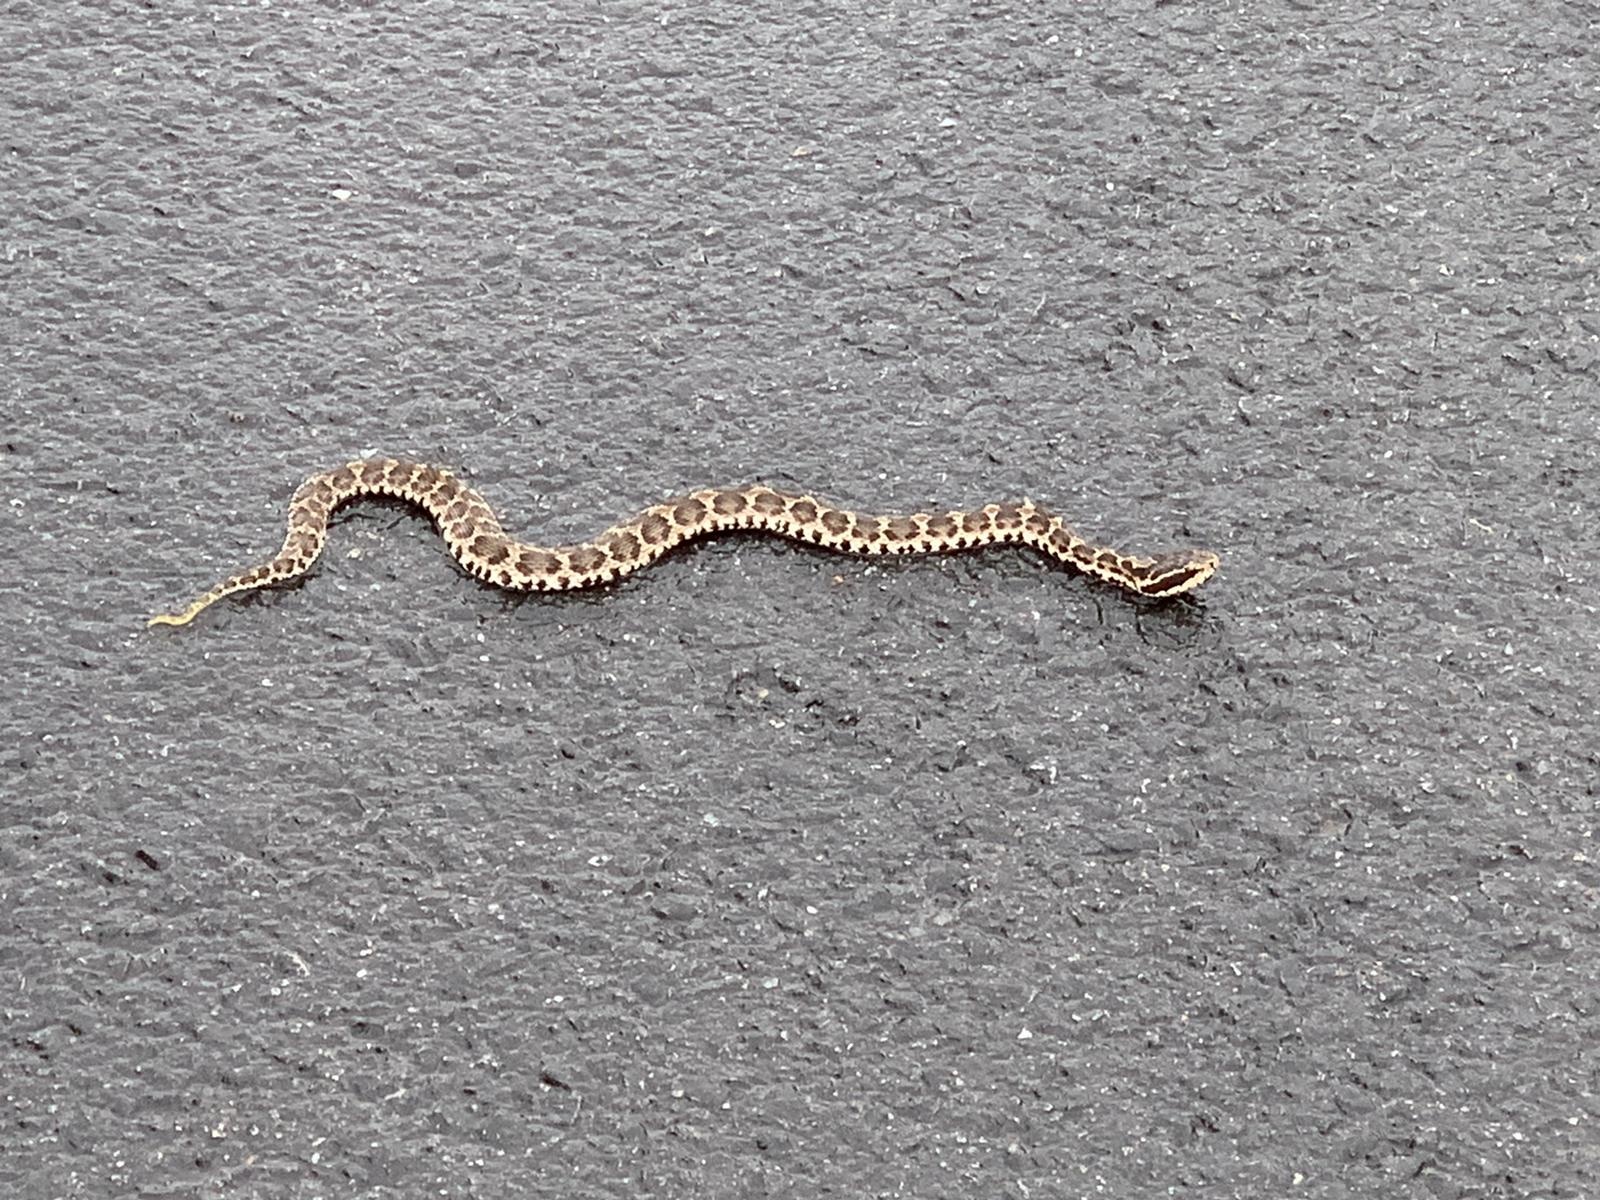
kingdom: Animalia
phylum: Chordata
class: Squamata
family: Viperidae
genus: Gloydius
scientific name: Gloydius brevicauda
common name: Short-tailed mamushi
